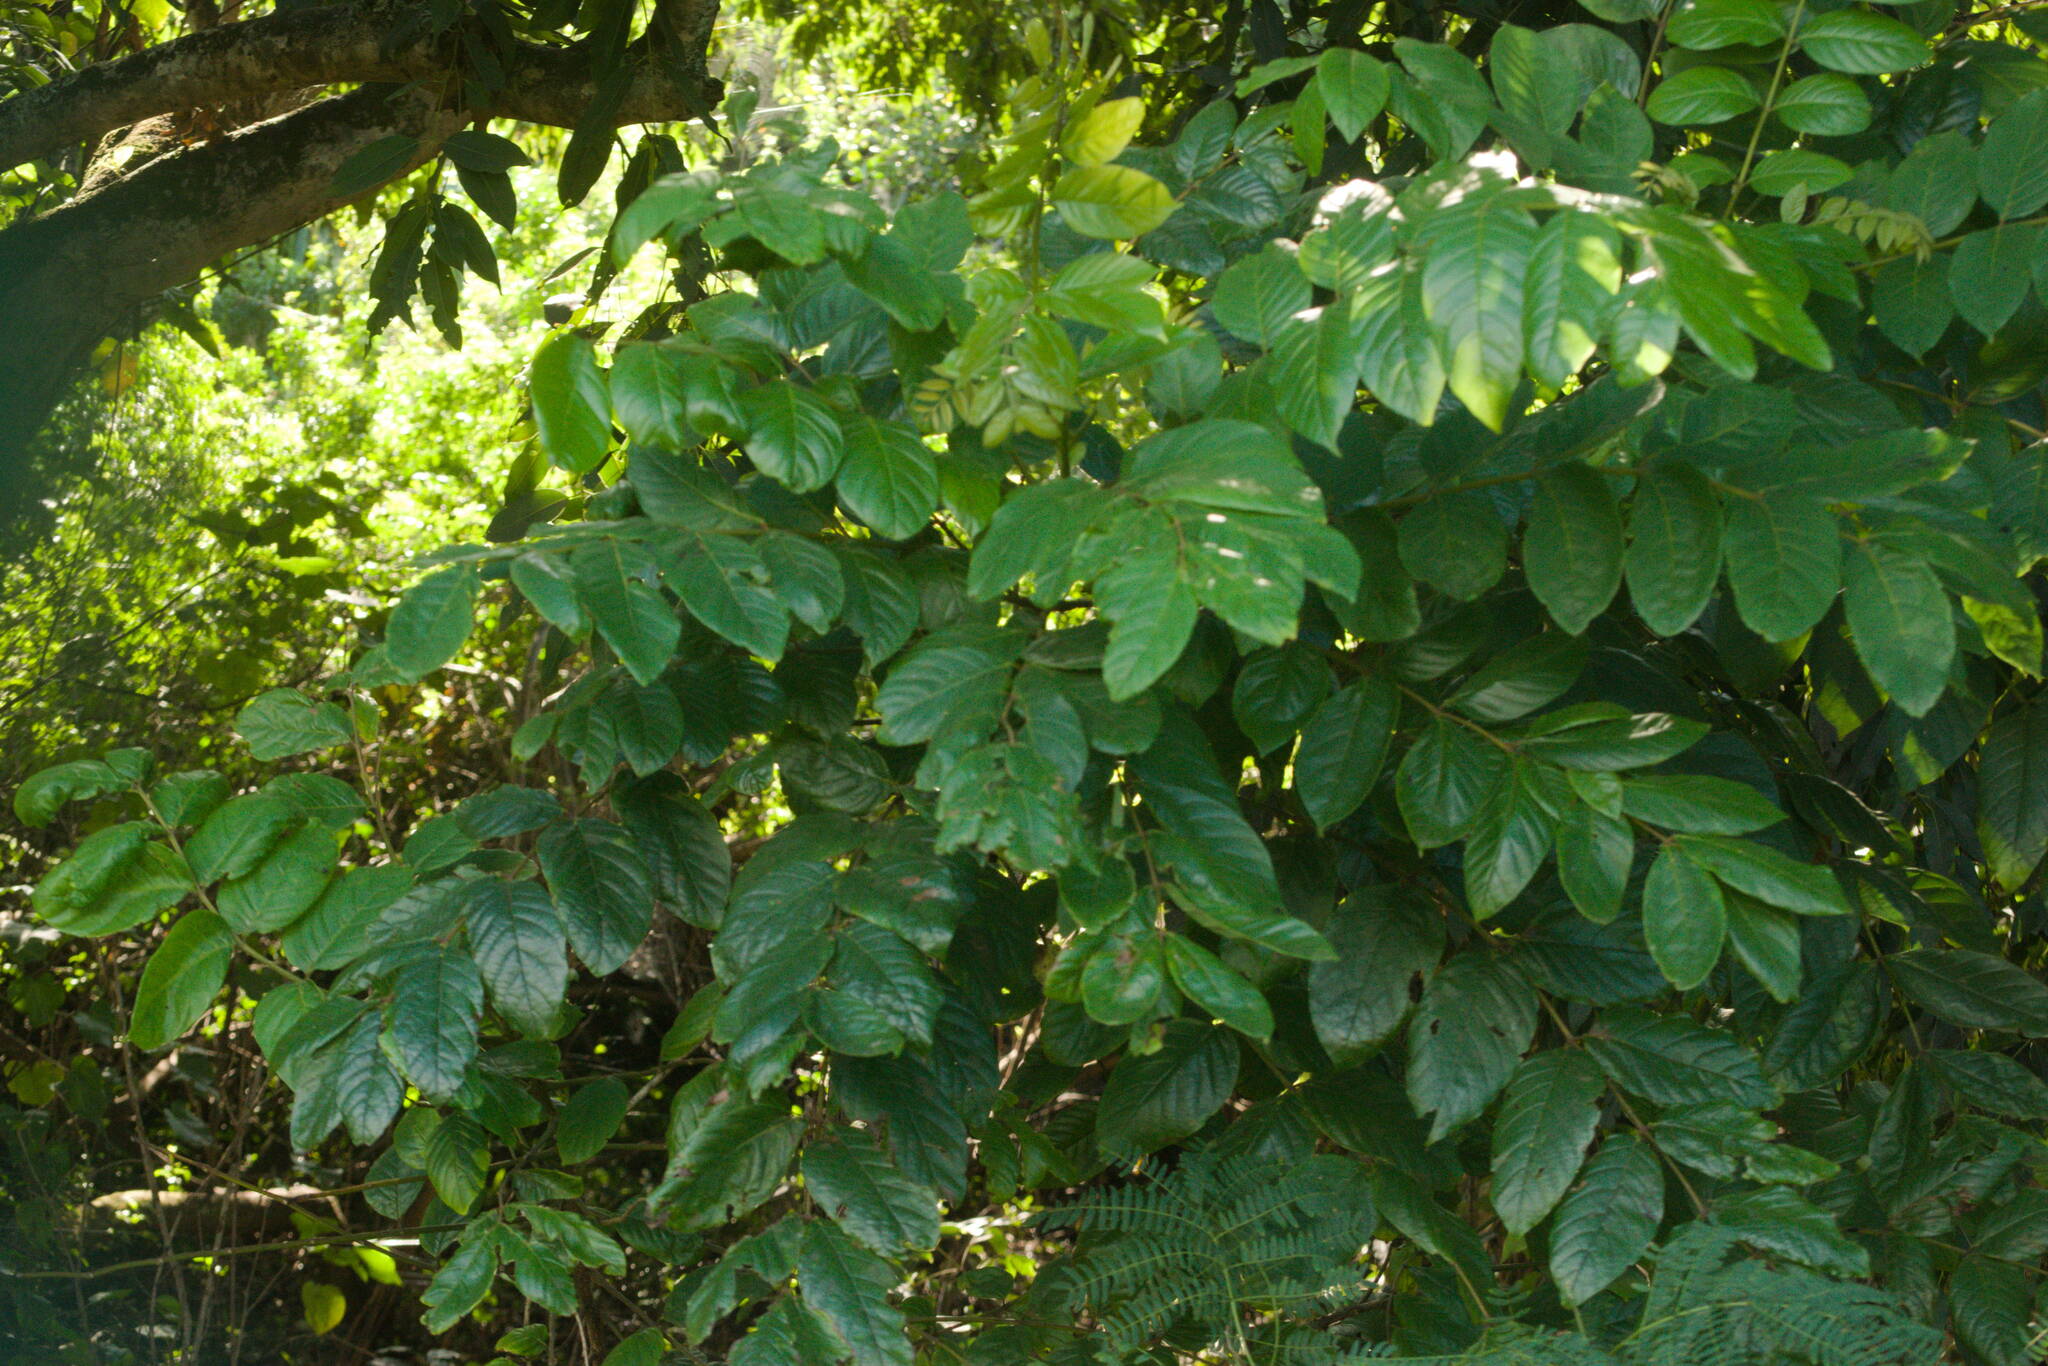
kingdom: Plantae
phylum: Tracheophyta
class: Magnoliopsida
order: Lamiales
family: Bignoniaceae
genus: Spathodea
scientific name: Spathodea campanulata
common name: African tuliptree
